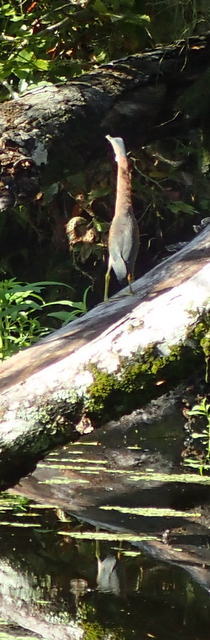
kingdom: Animalia
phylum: Chordata
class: Aves
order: Pelecaniformes
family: Ardeidae
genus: Butorides
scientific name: Butorides virescens
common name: Green heron
